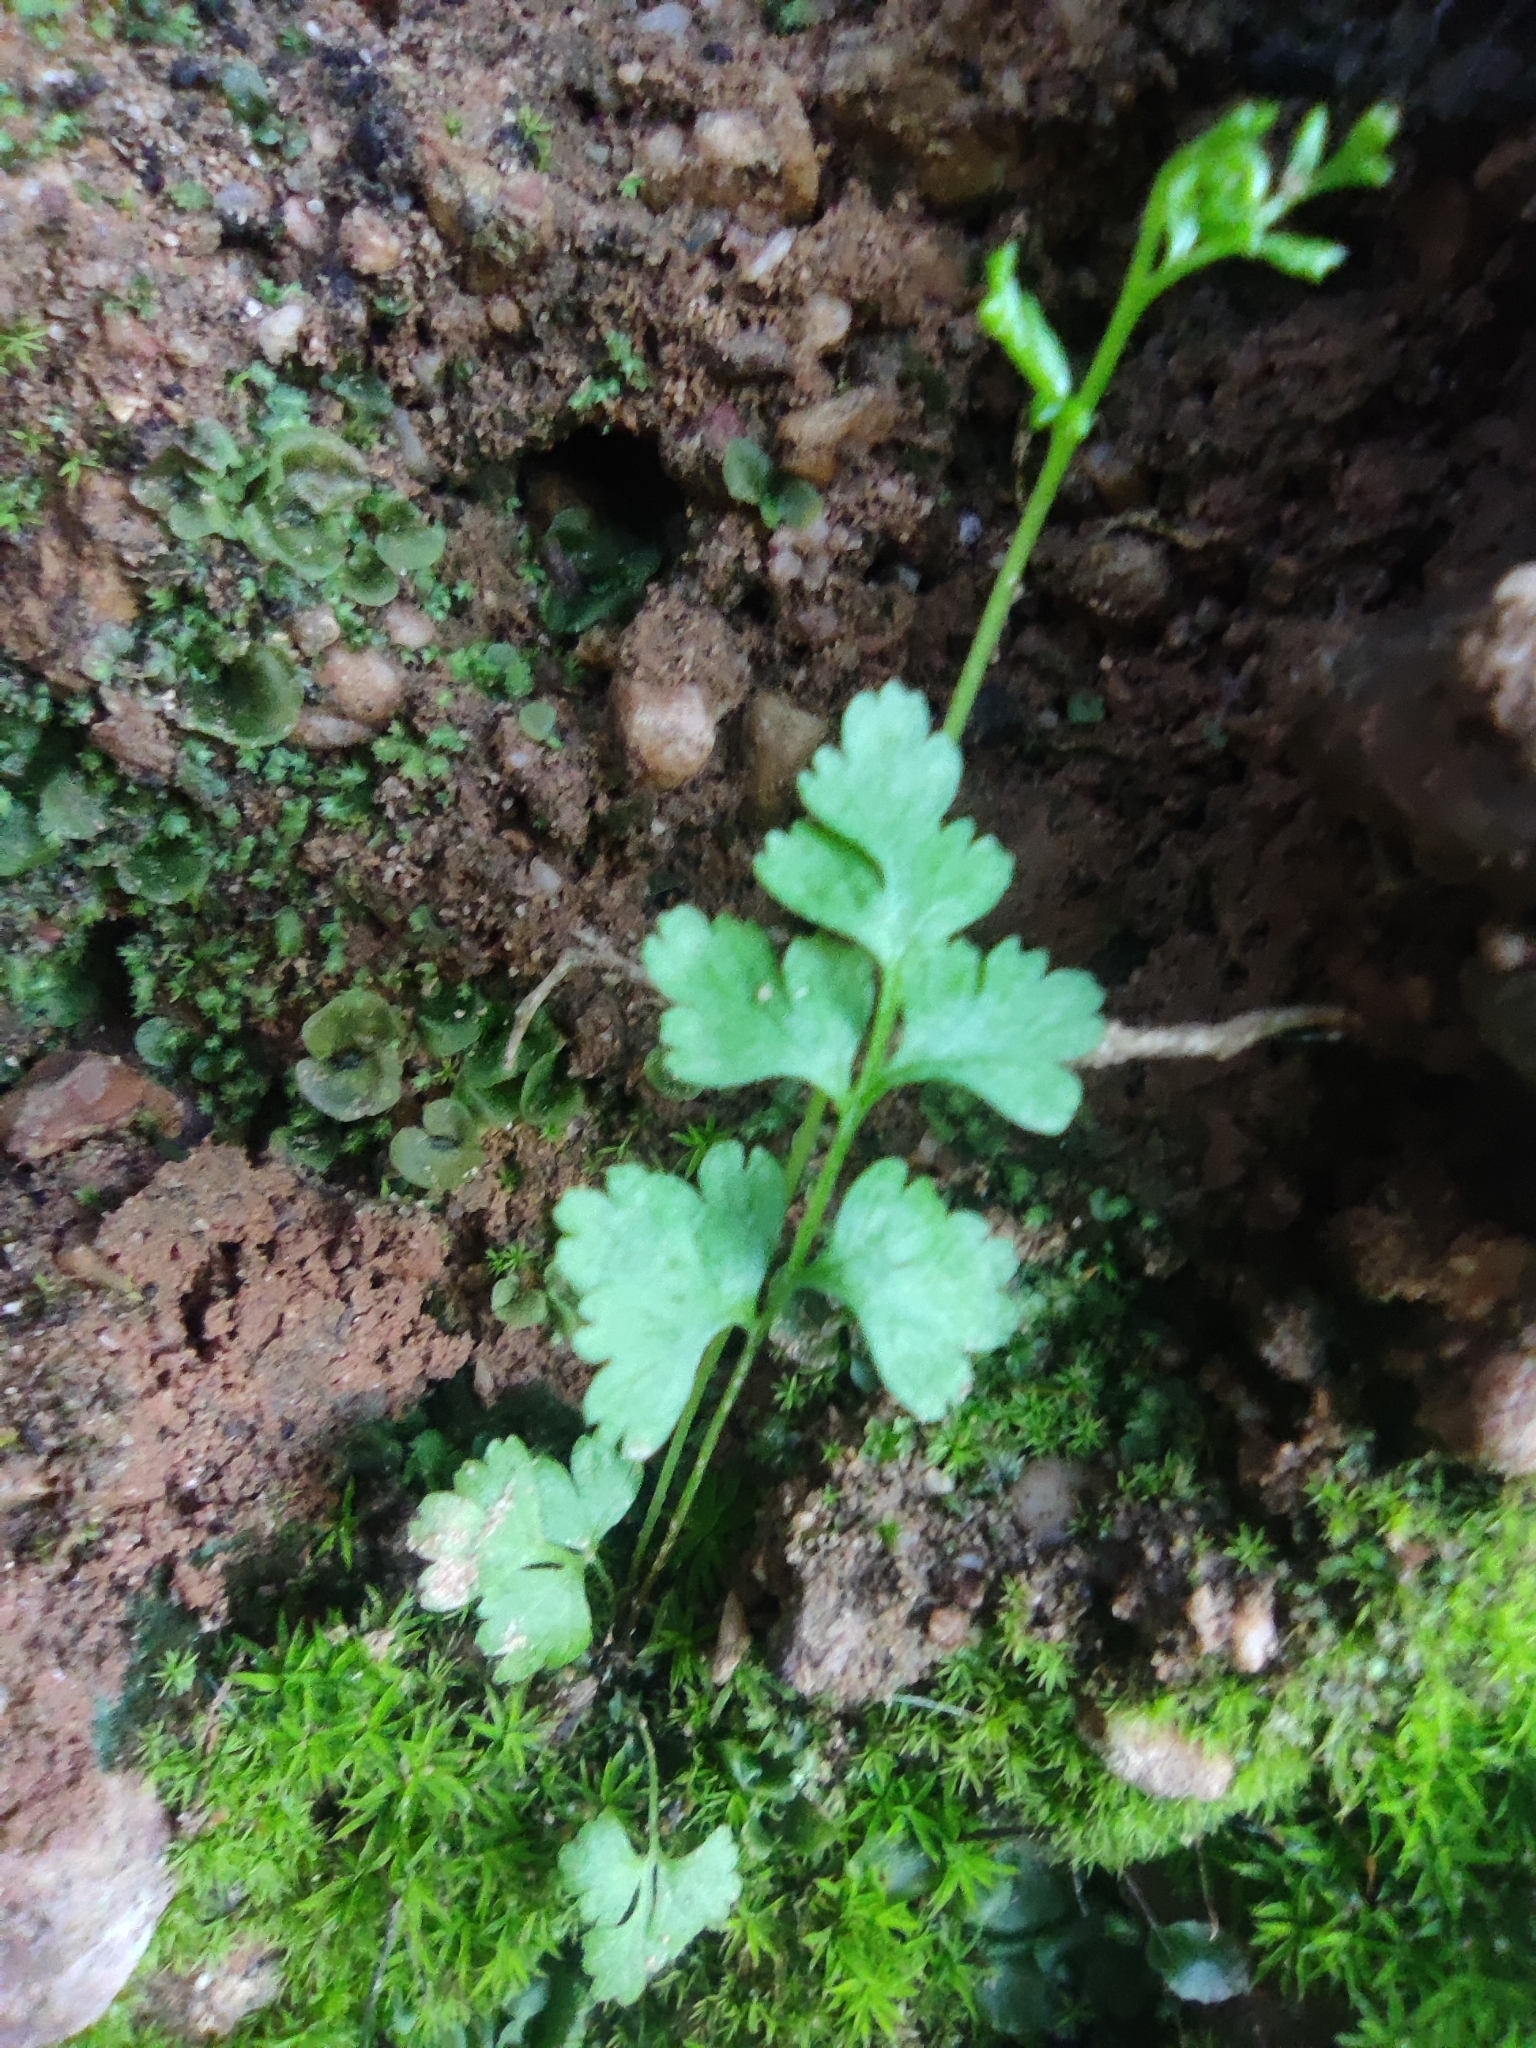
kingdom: Plantae
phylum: Tracheophyta
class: Polypodiopsida
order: Polypodiales
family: Pteridaceae
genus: Anogramma
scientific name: Anogramma leptophylla
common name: Jersey fern
